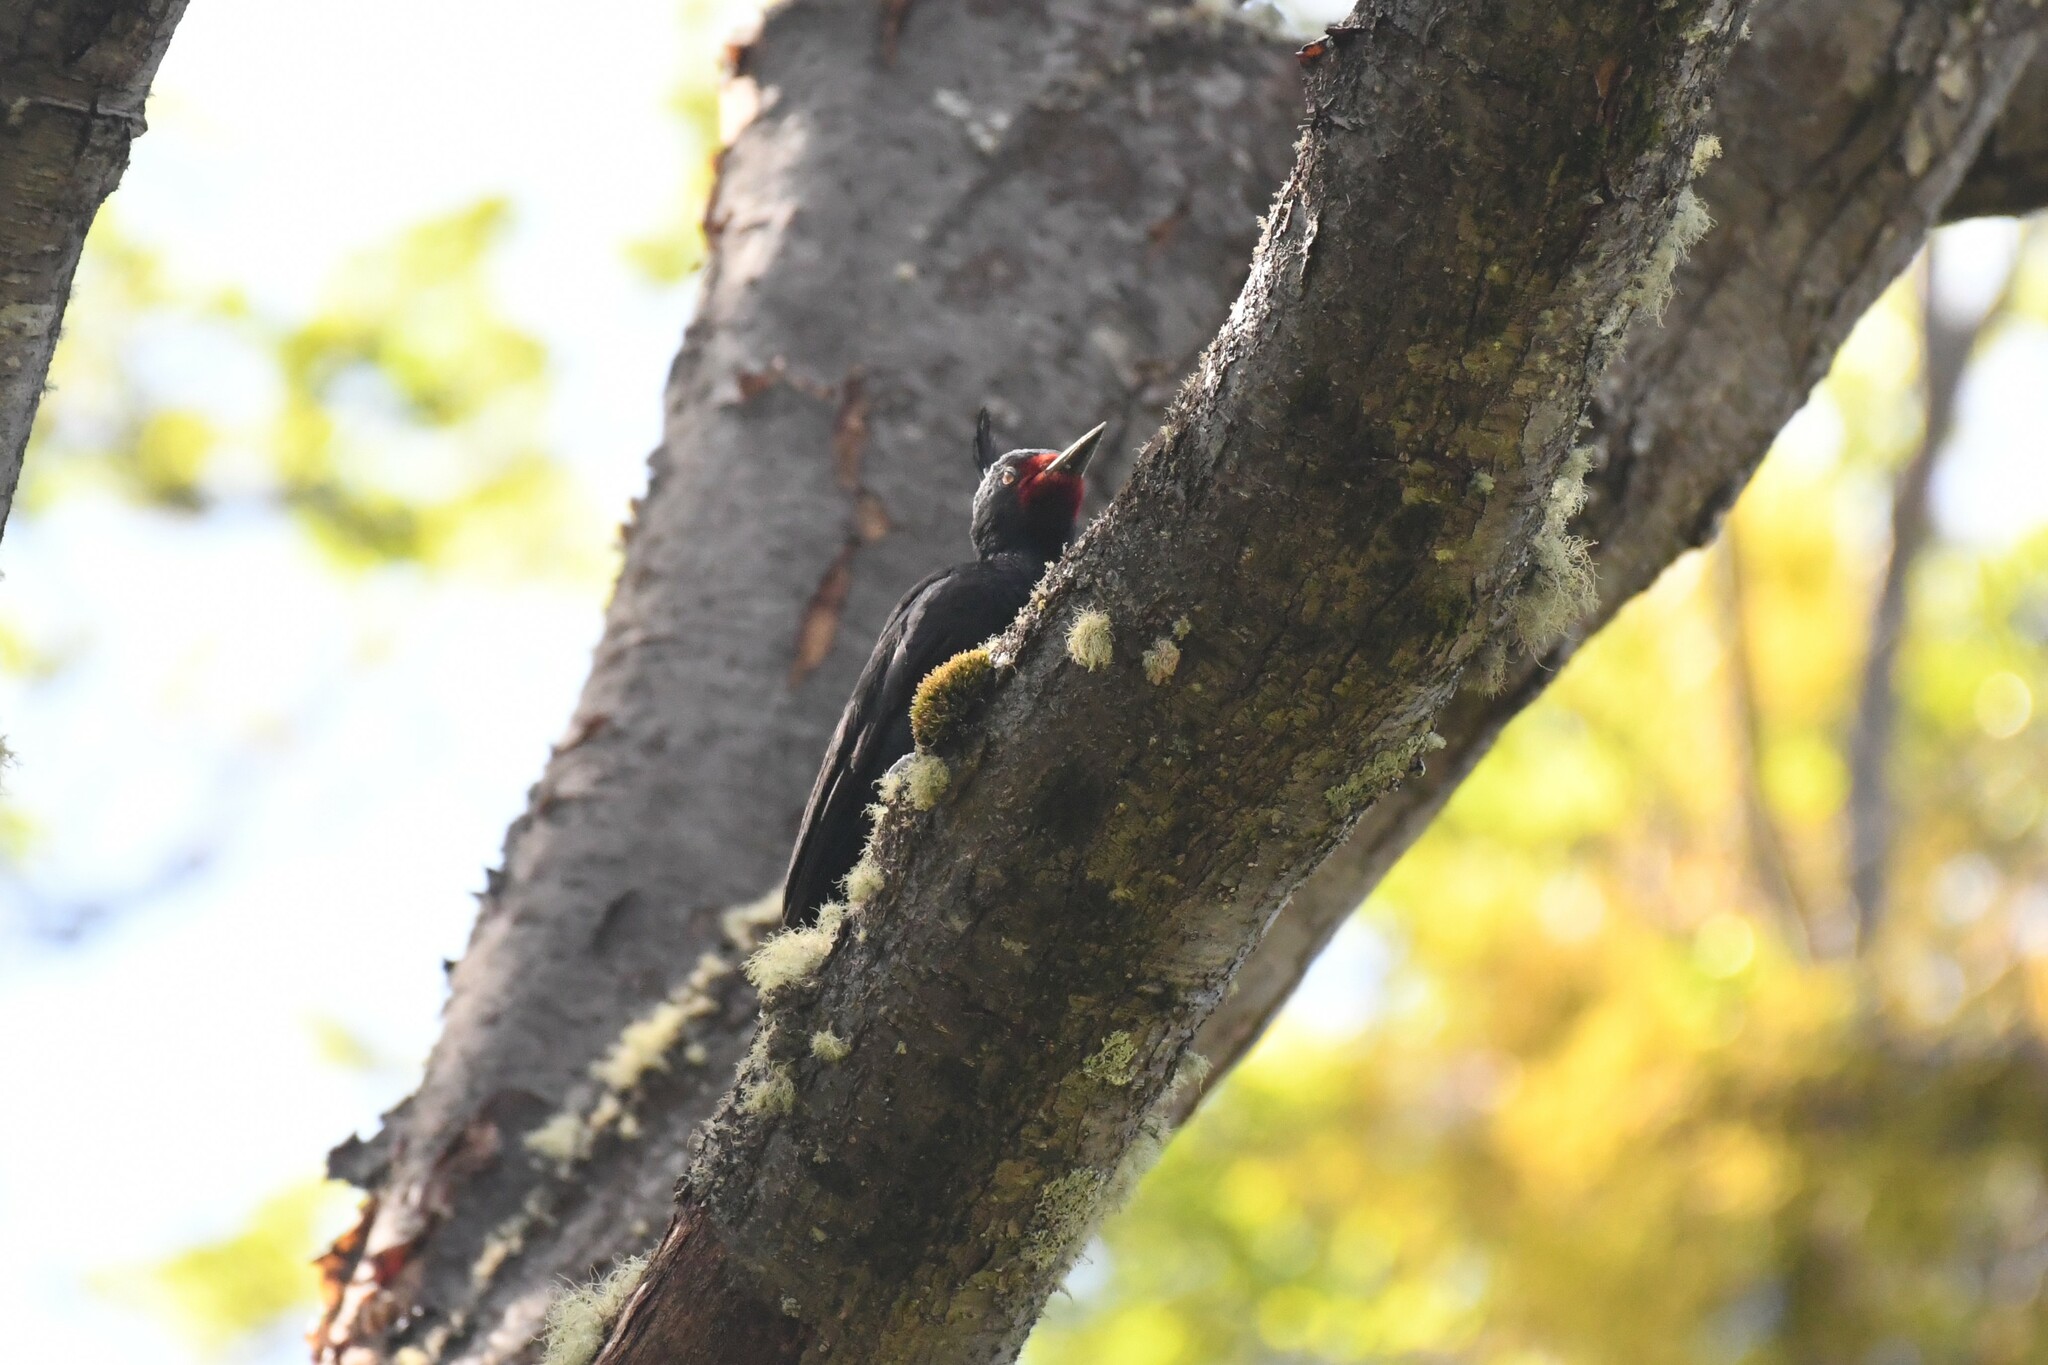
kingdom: Animalia
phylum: Chordata
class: Aves
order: Piciformes
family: Picidae
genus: Campephilus
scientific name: Campephilus magellanicus
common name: Magellanic woodpecker
